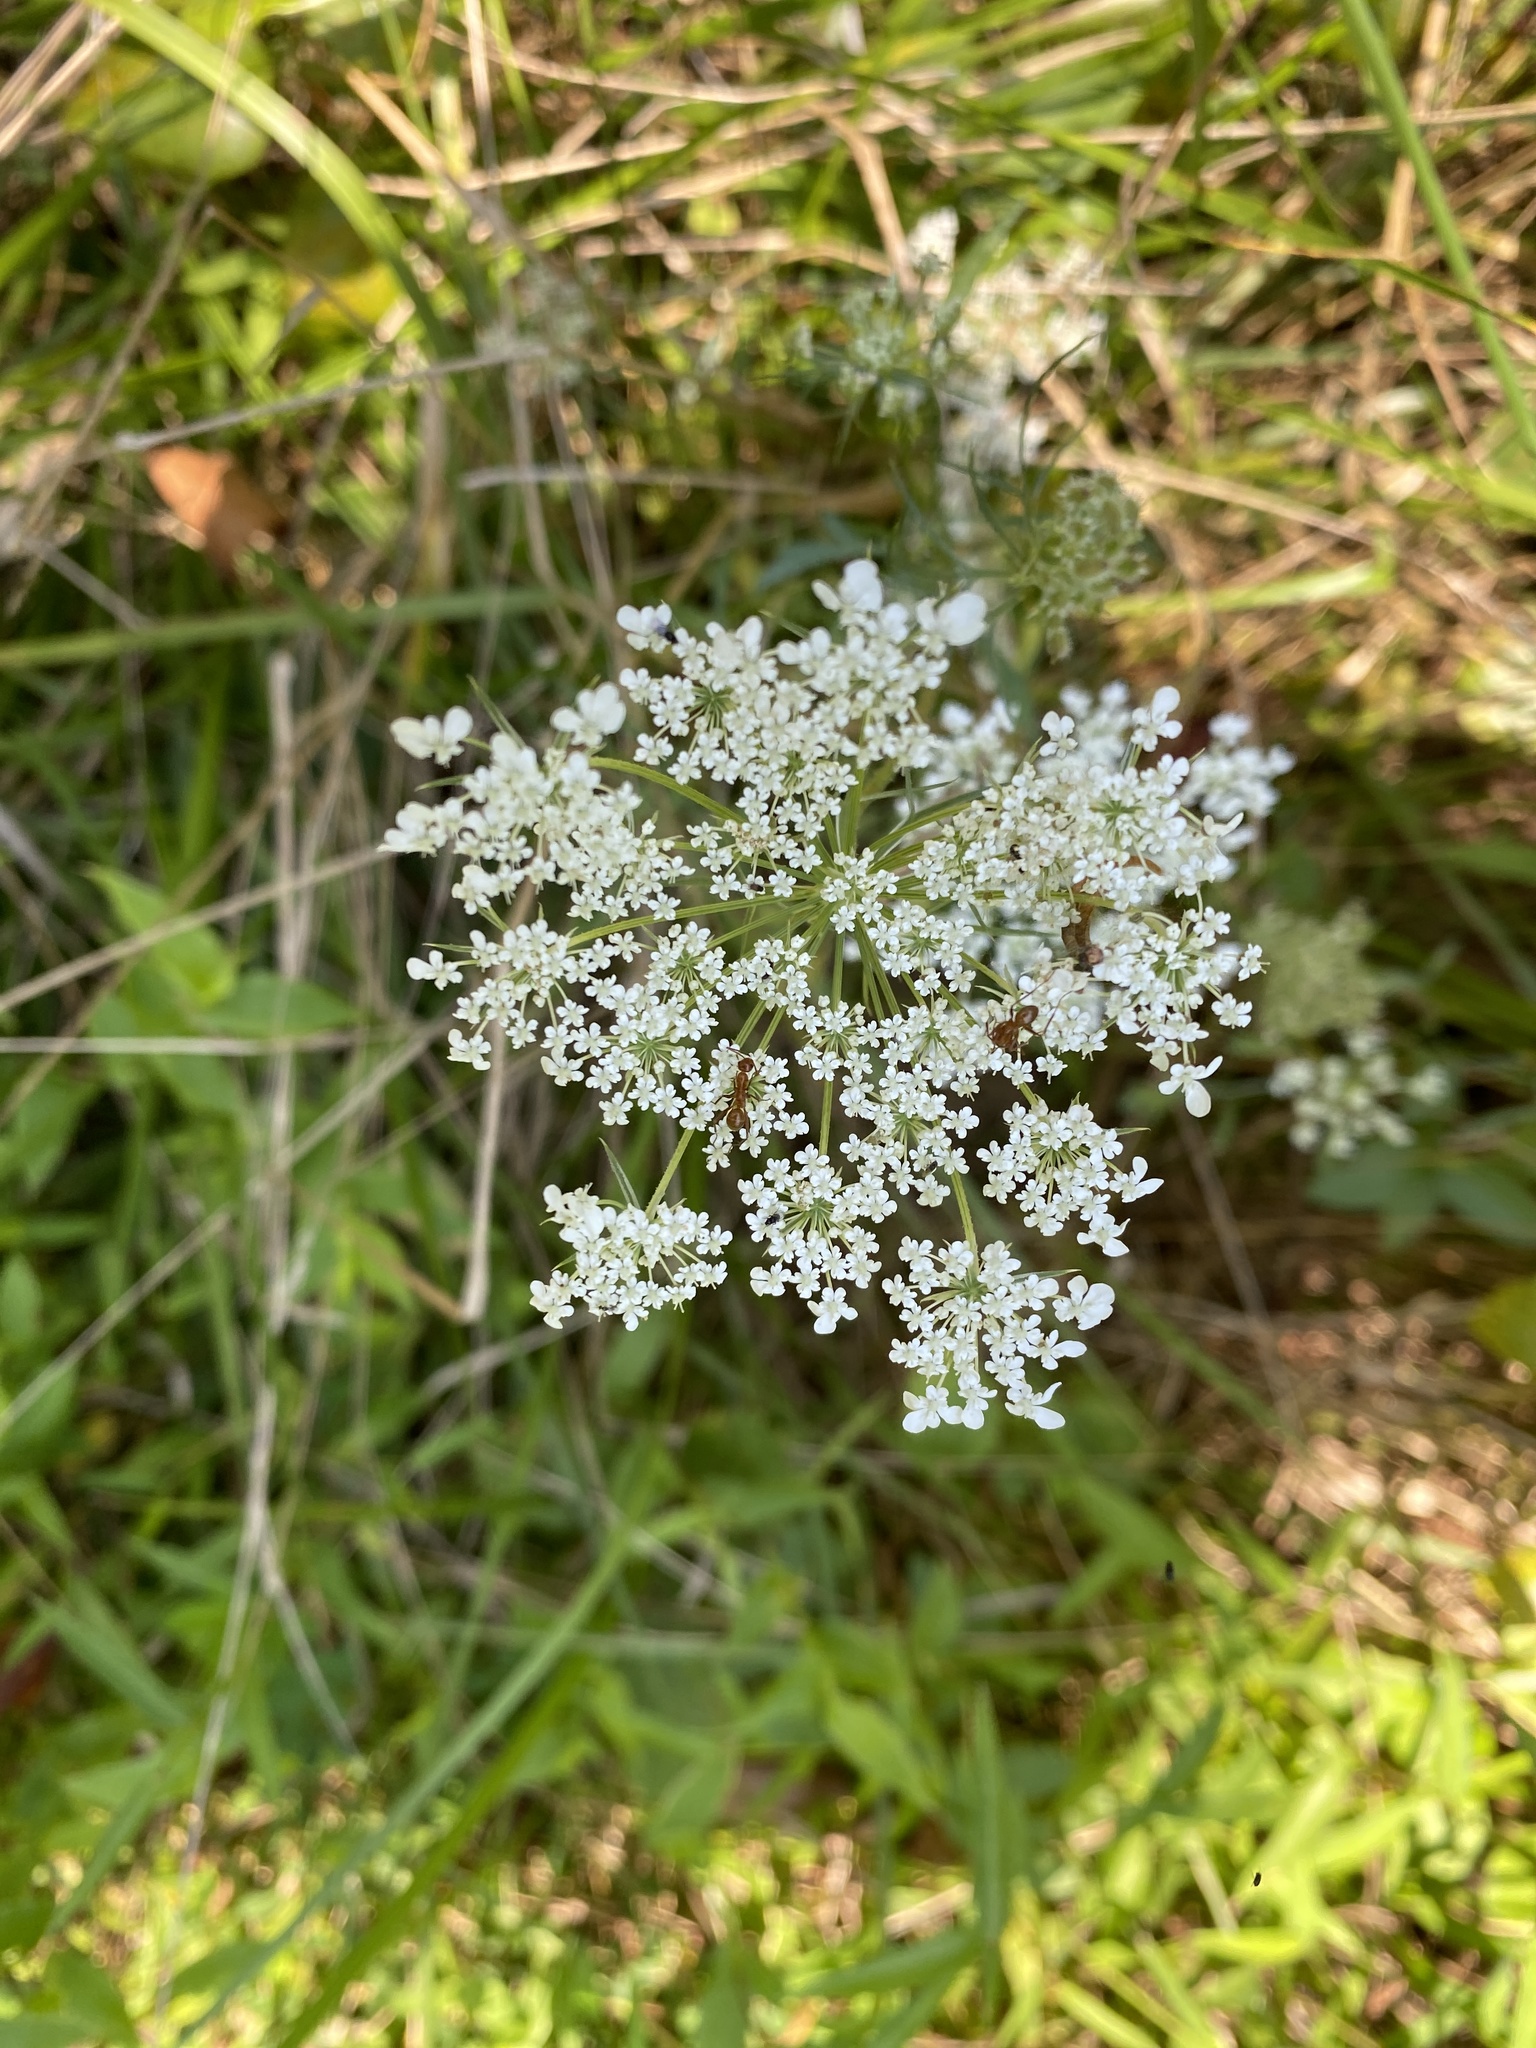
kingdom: Plantae
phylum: Tracheophyta
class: Magnoliopsida
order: Apiales
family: Apiaceae
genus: Daucus
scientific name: Daucus carota
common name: Wild carrot
